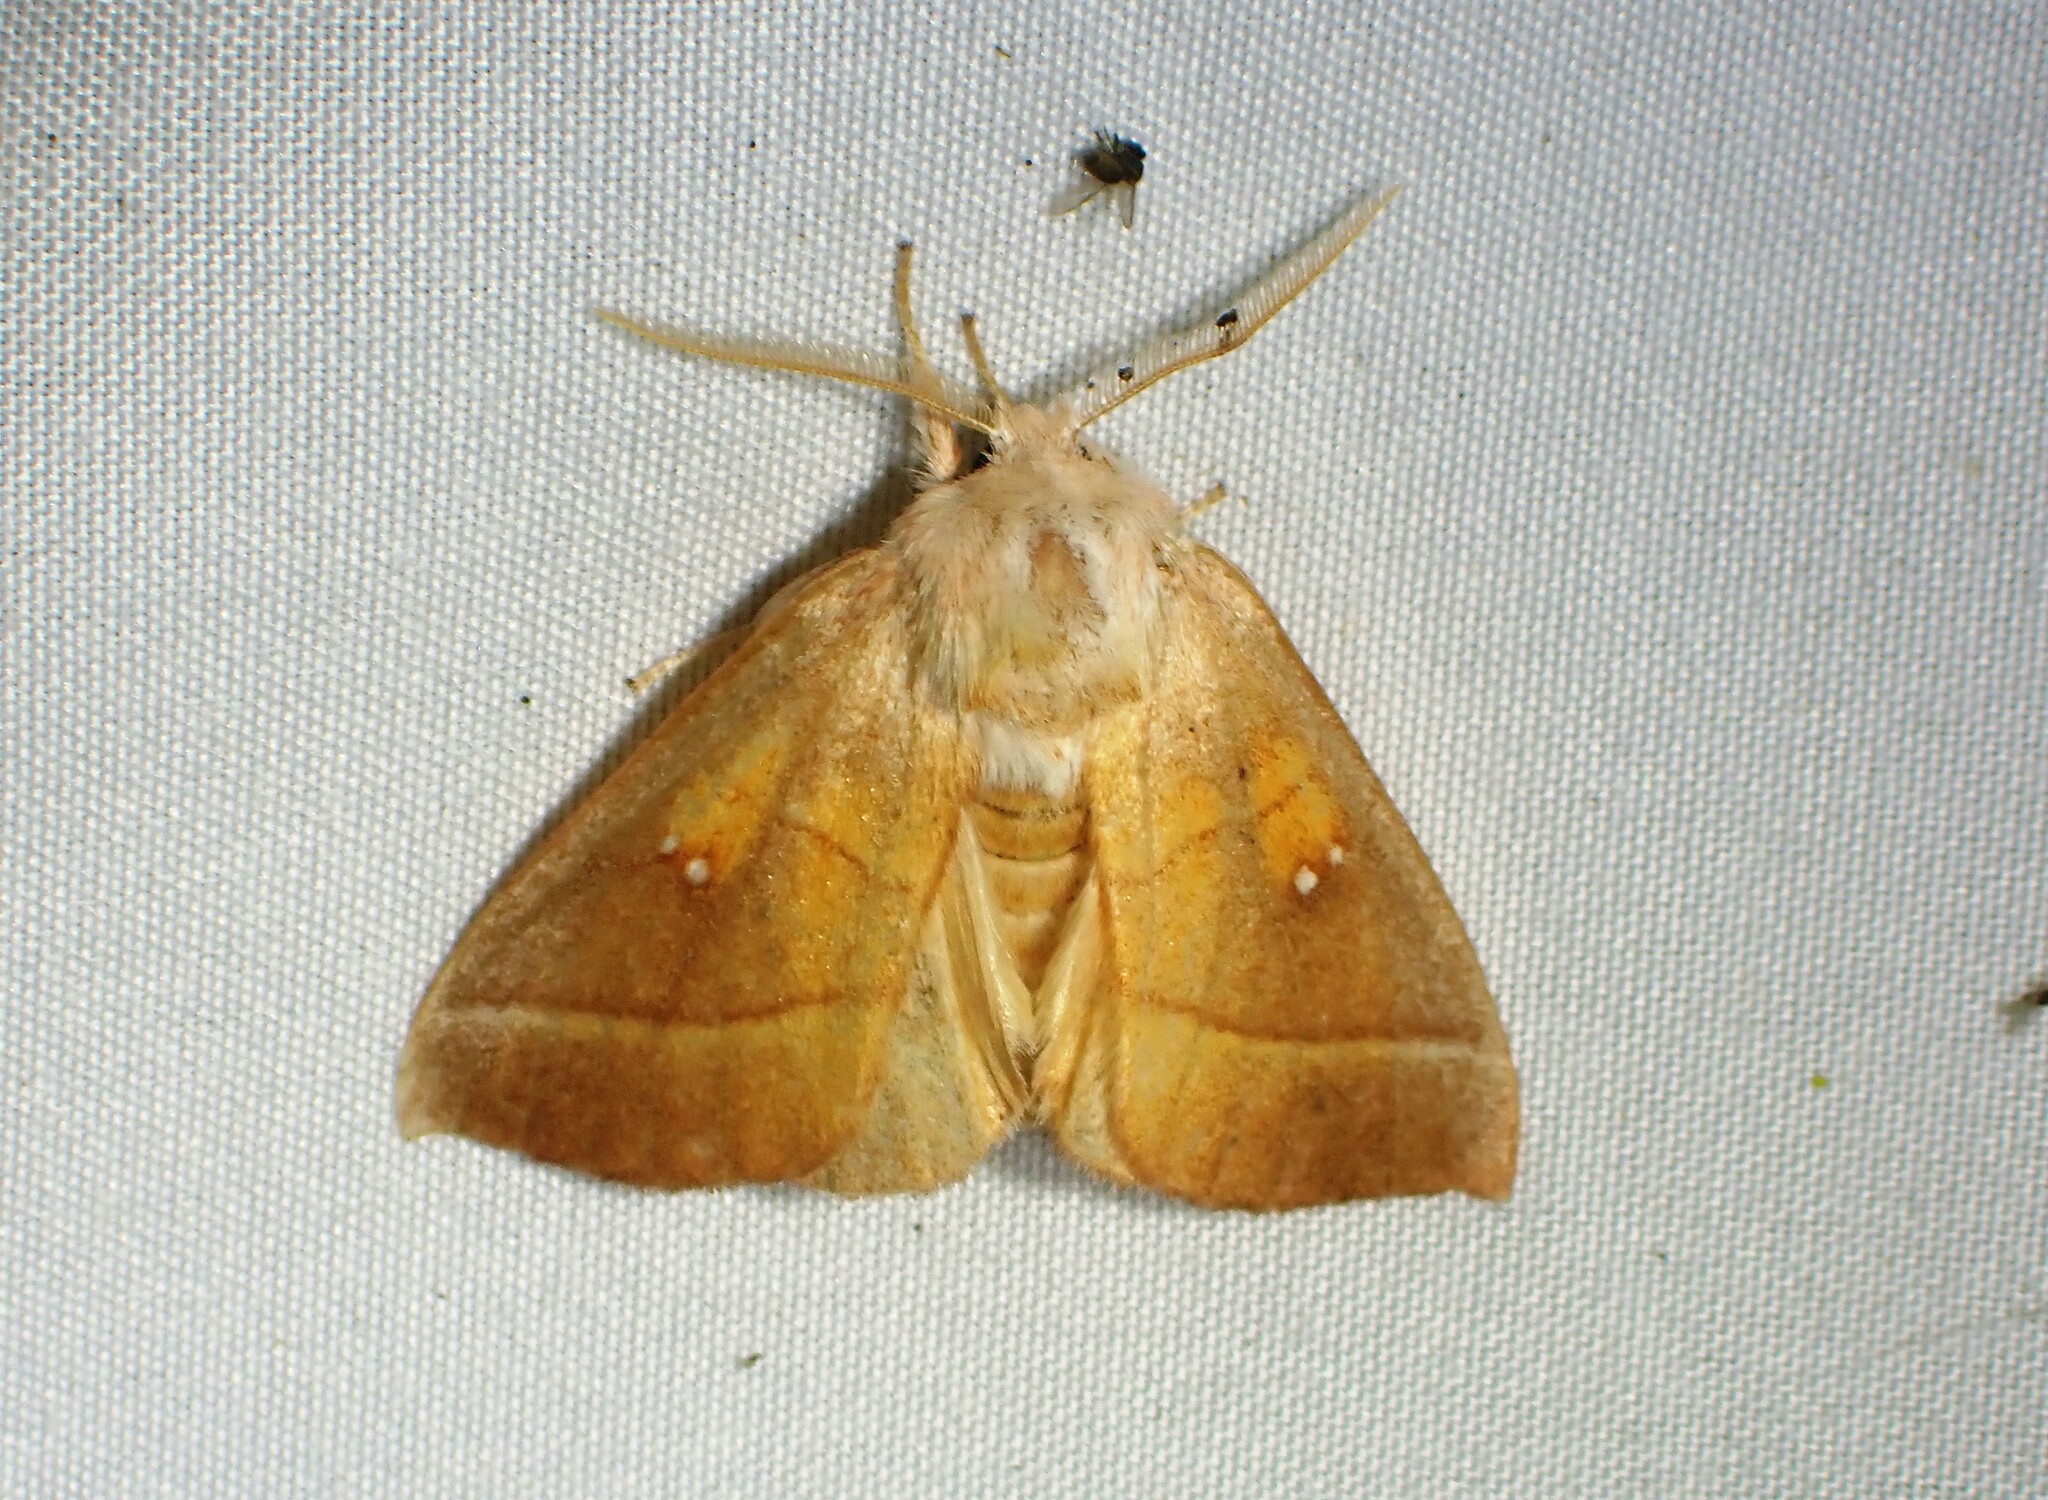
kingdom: Animalia
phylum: Arthropoda
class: Insecta
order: Lepidoptera
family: Notodontidae
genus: Nadata
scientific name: Nadata gibbosa
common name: White-dotted prominent
